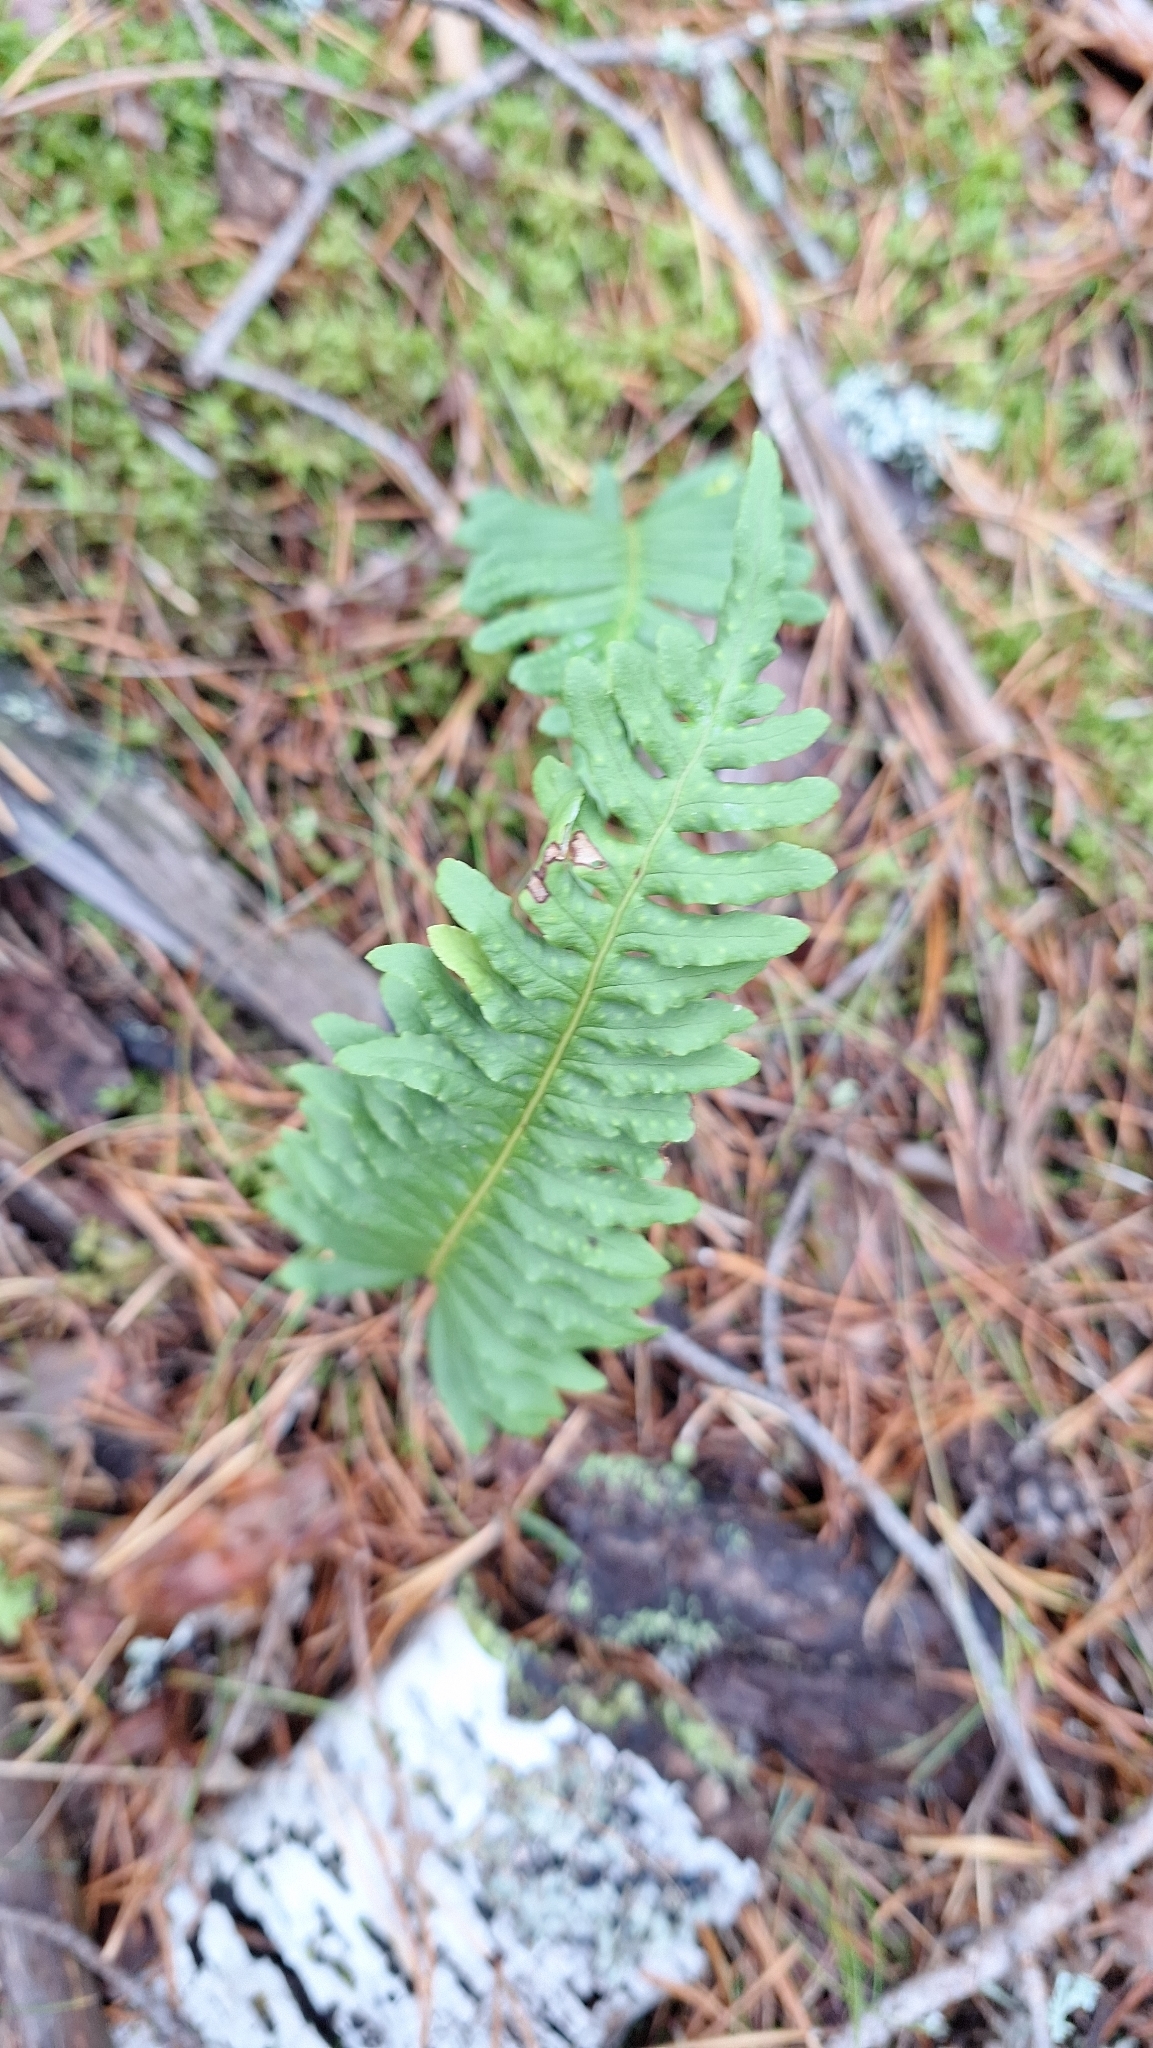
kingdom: Plantae
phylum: Tracheophyta
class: Polypodiopsida
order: Polypodiales
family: Polypodiaceae
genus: Polypodium
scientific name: Polypodium vulgare
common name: Common polypody
